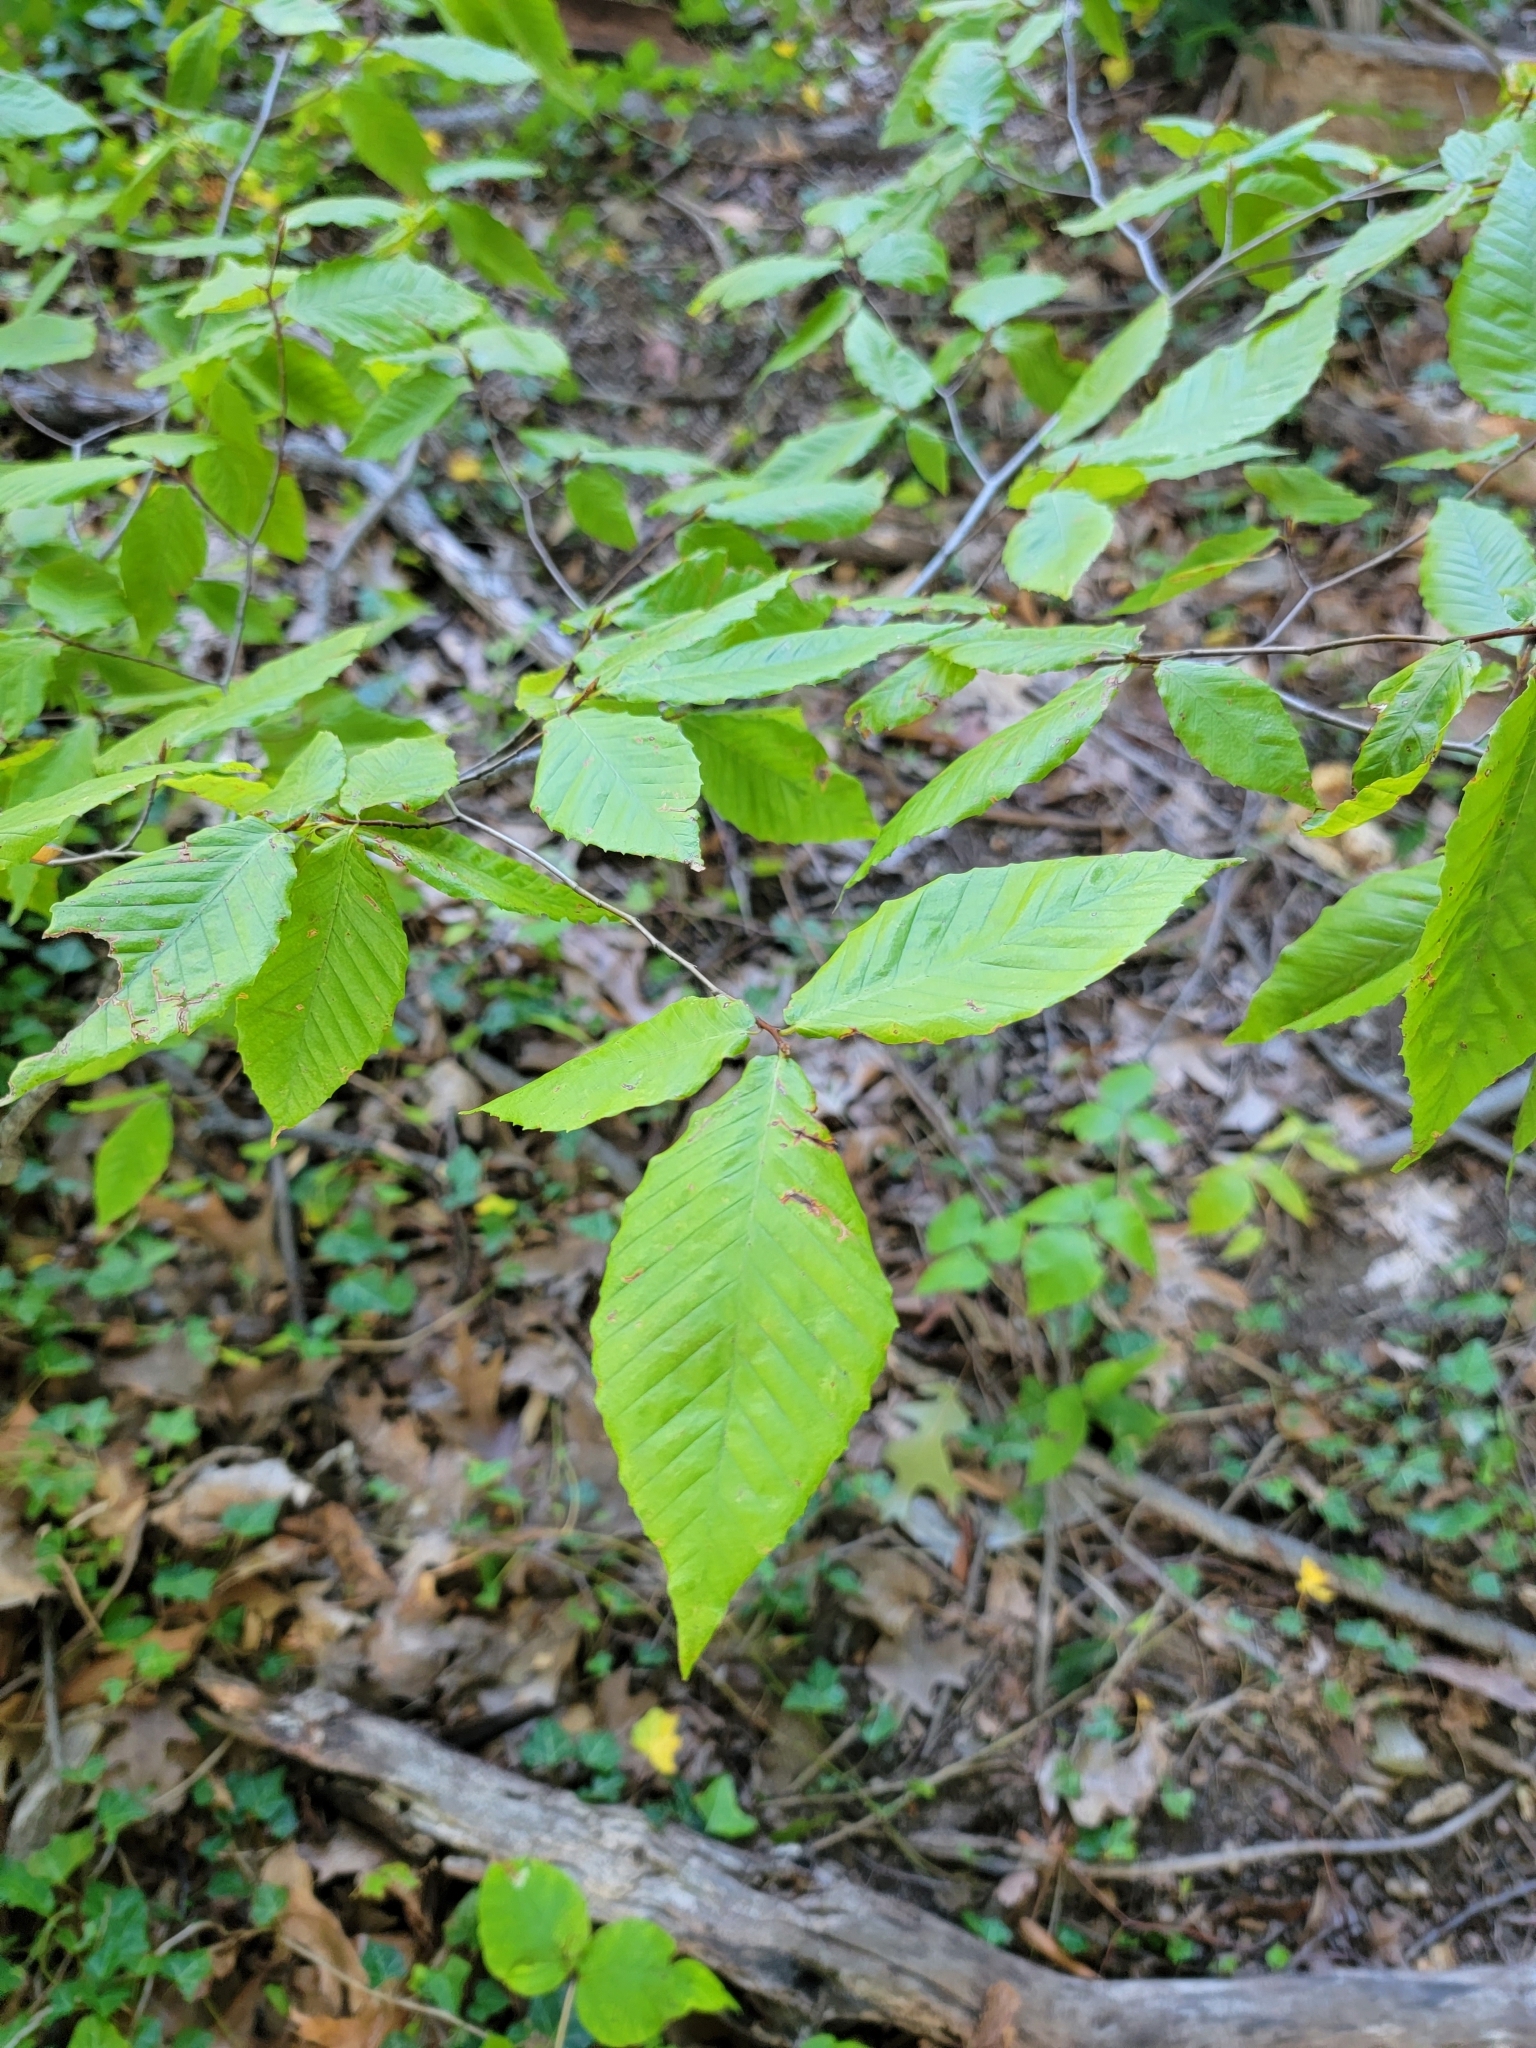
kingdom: Plantae
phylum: Tracheophyta
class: Magnoliopsida
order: Fagales
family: Fagaceae
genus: Fagus
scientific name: Fagus grandifolia
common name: American beech
